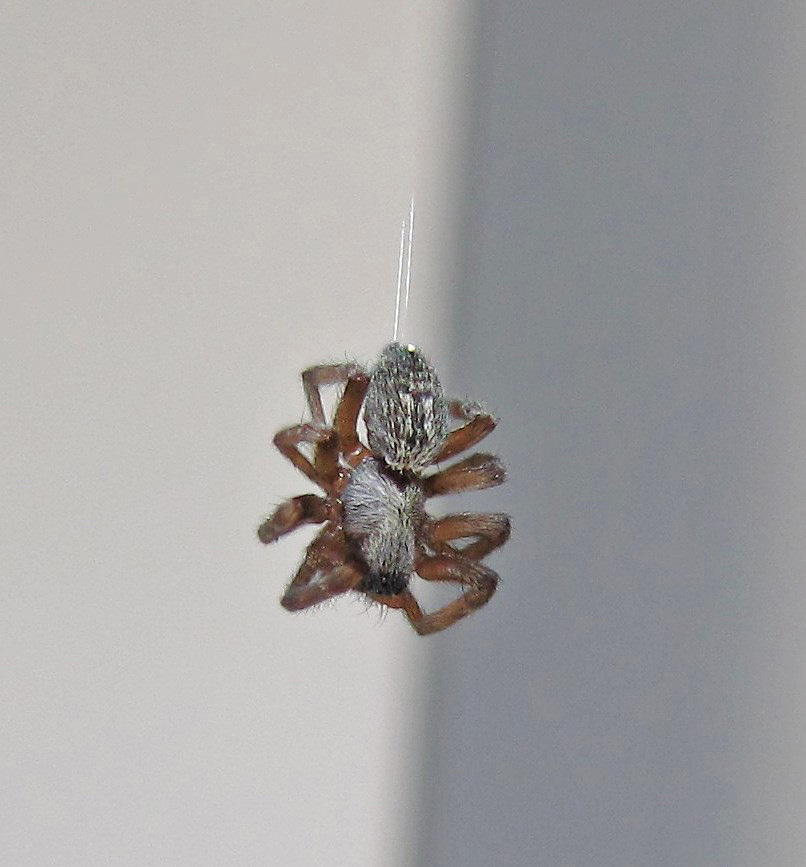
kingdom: Animalia
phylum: Arthropoda
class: Arachnida
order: Araneae
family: Desidae
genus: Badumna
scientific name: Badumna longinqua
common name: Gray house spider
